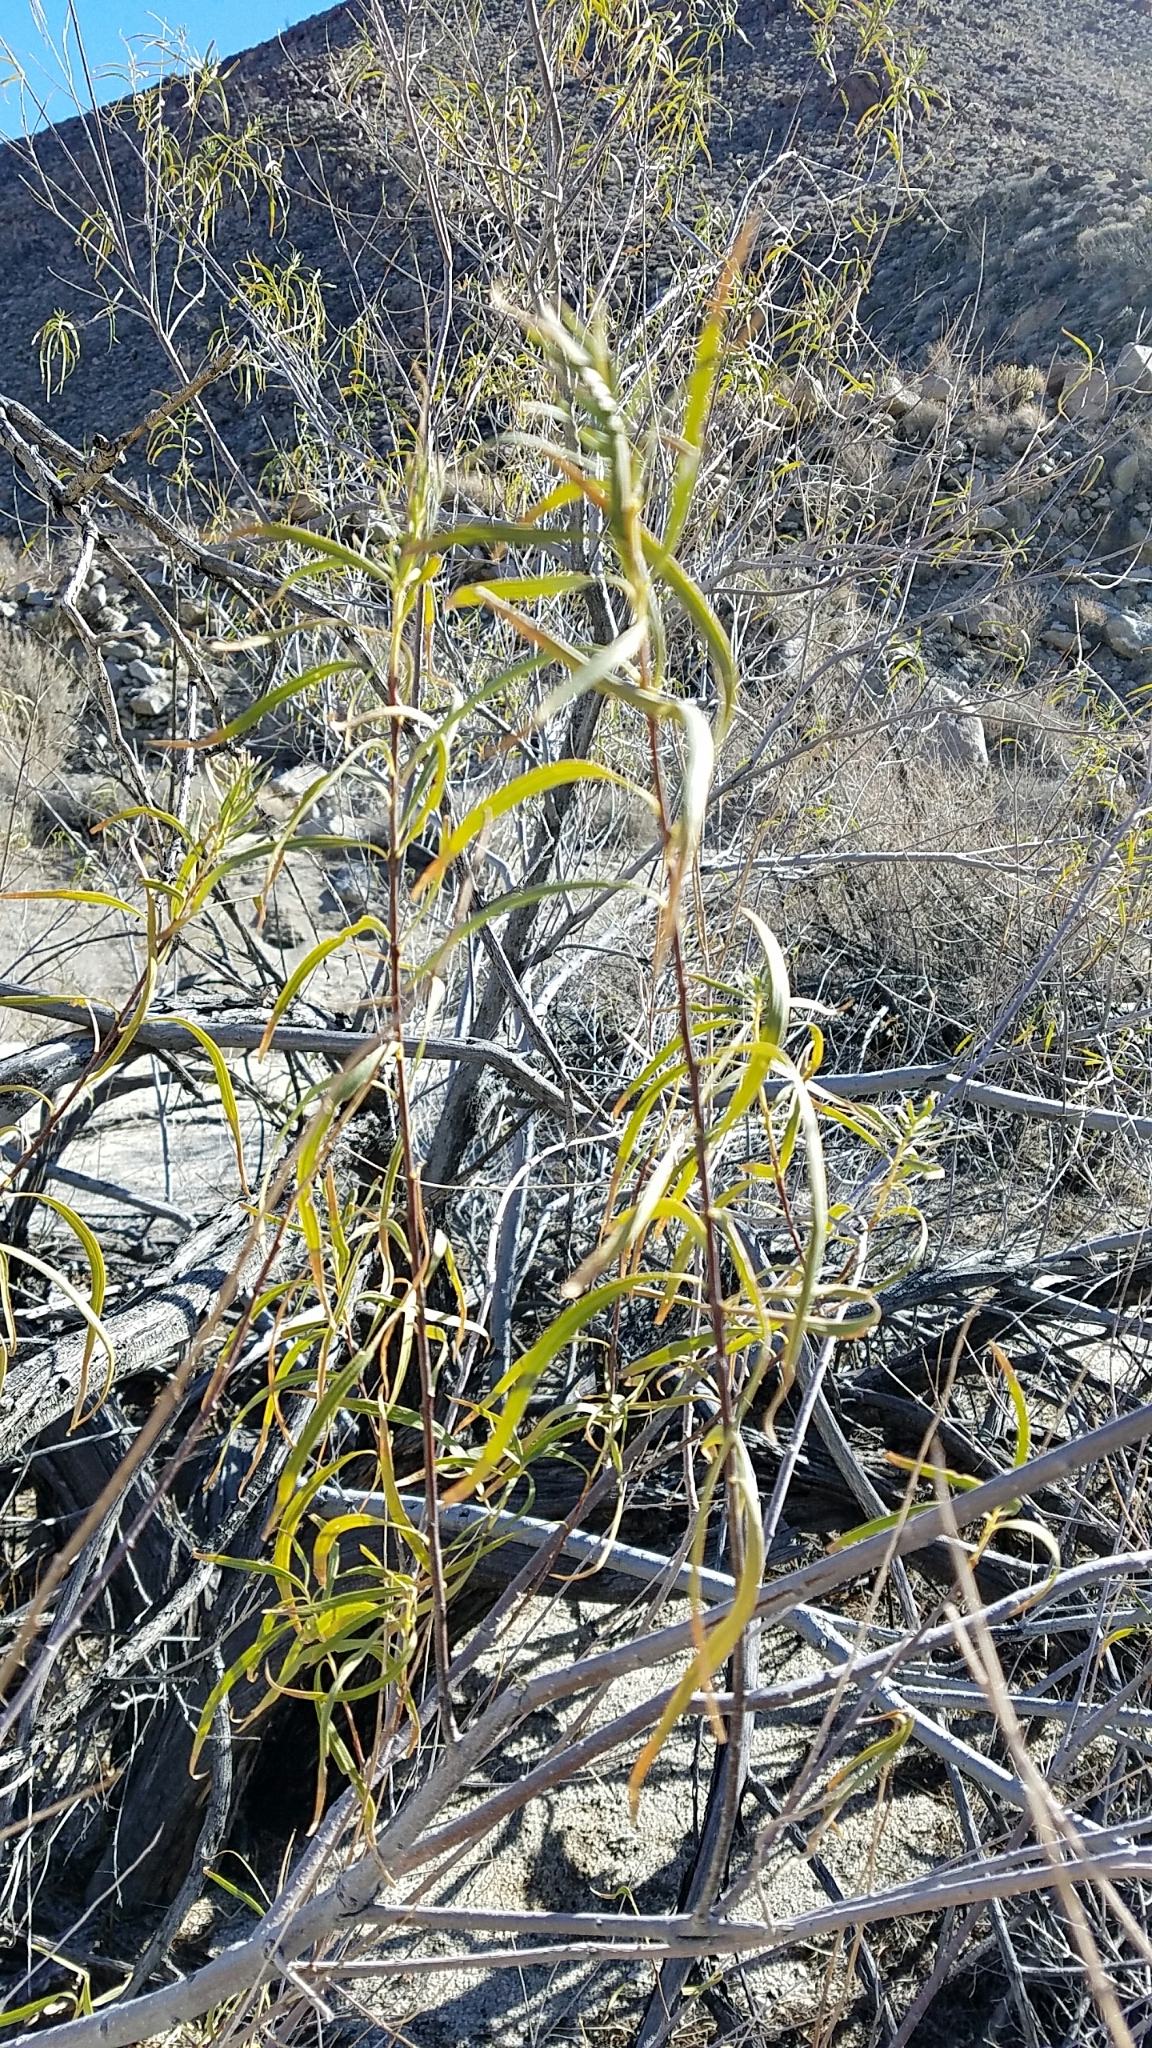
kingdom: Plantae
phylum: Tracheophyta
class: Magnoliopsida
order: Lamiales
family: Bignoniaceae
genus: Chilopsis
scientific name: Chilopsis linearis
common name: Desert-willow
